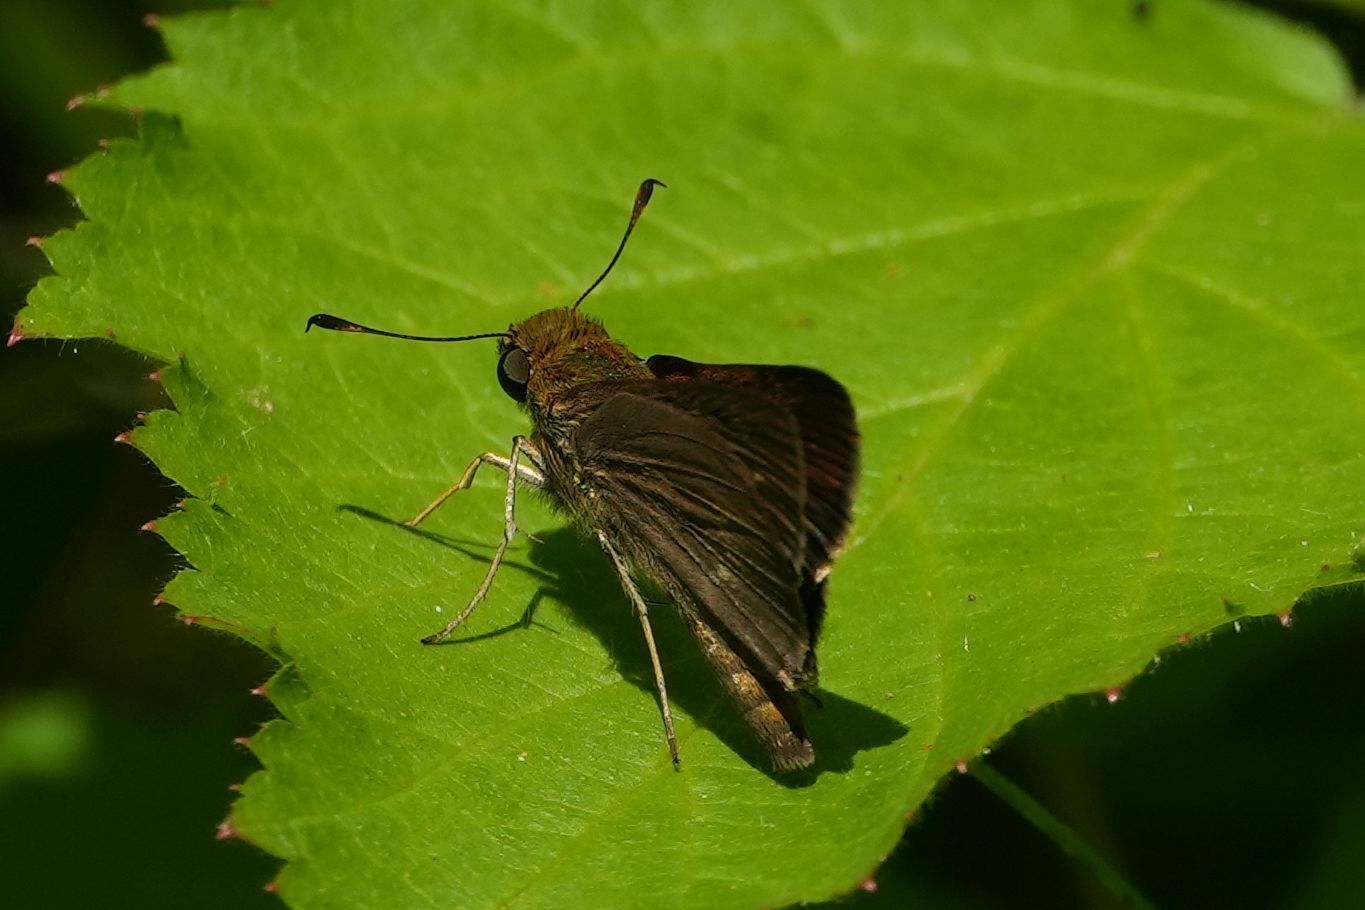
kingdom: Animalia
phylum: Arthropoda
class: Insecta
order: Lepidoptera
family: Hesperiidae
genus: Euphyes
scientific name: Euphyes vestris
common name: Dun skipper
